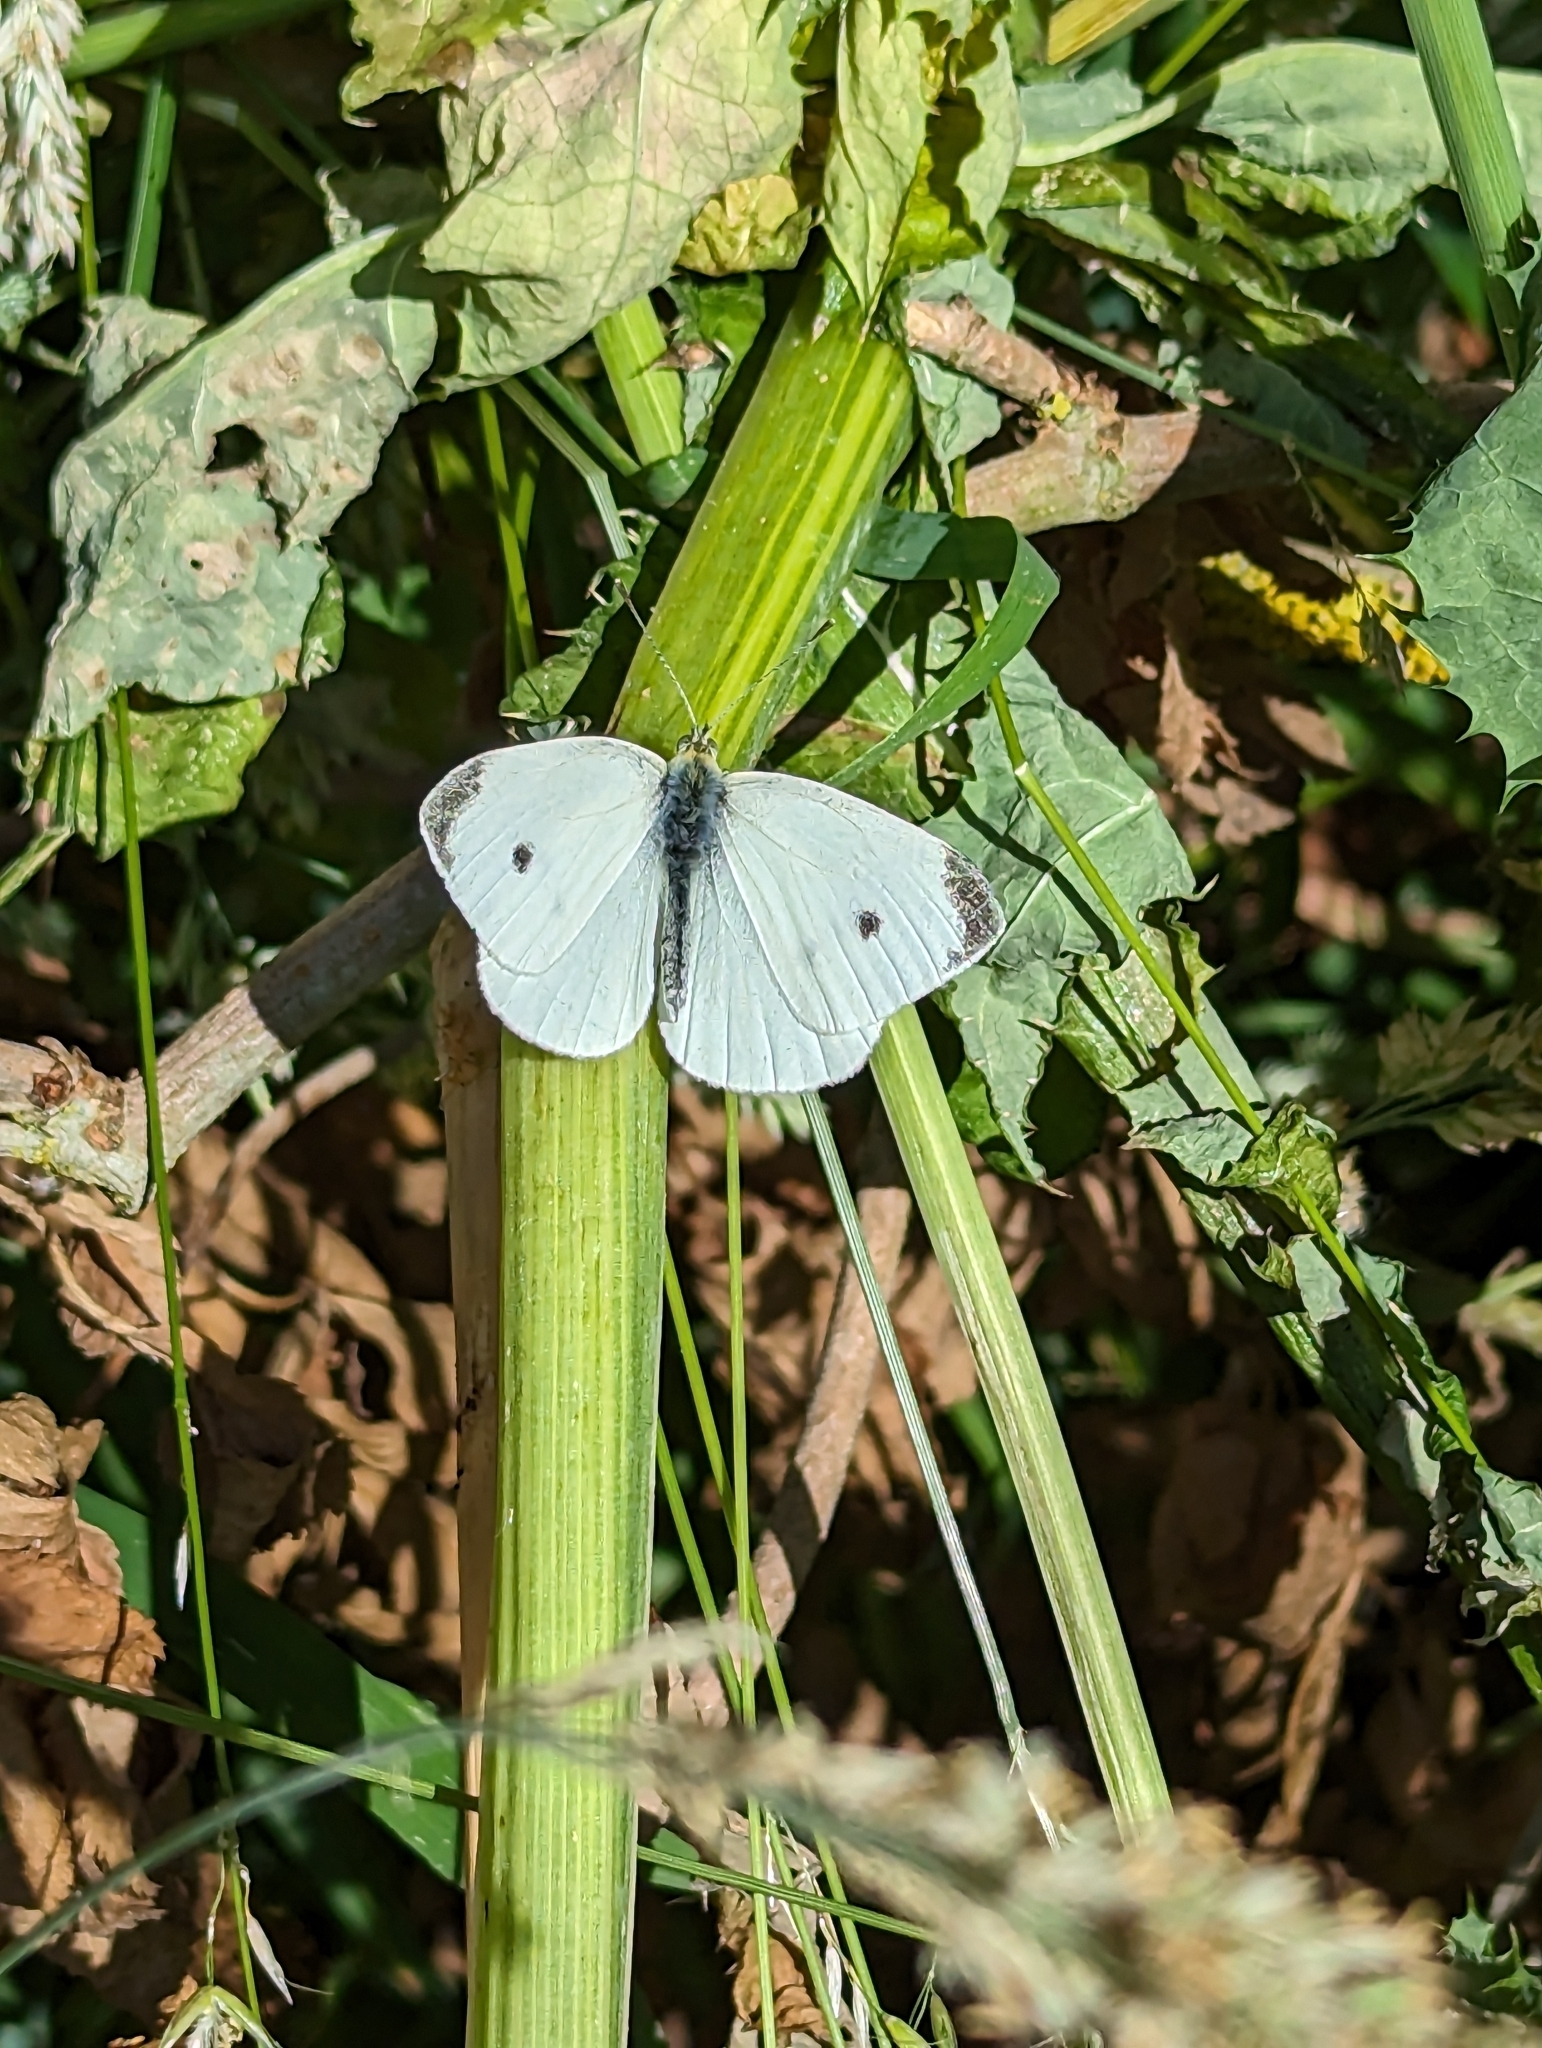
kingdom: Animalia
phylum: Arthropoda
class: Insecta
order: Lepidoptera
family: Pieridae
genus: Pieris
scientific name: Pieris rapae
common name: Small white
